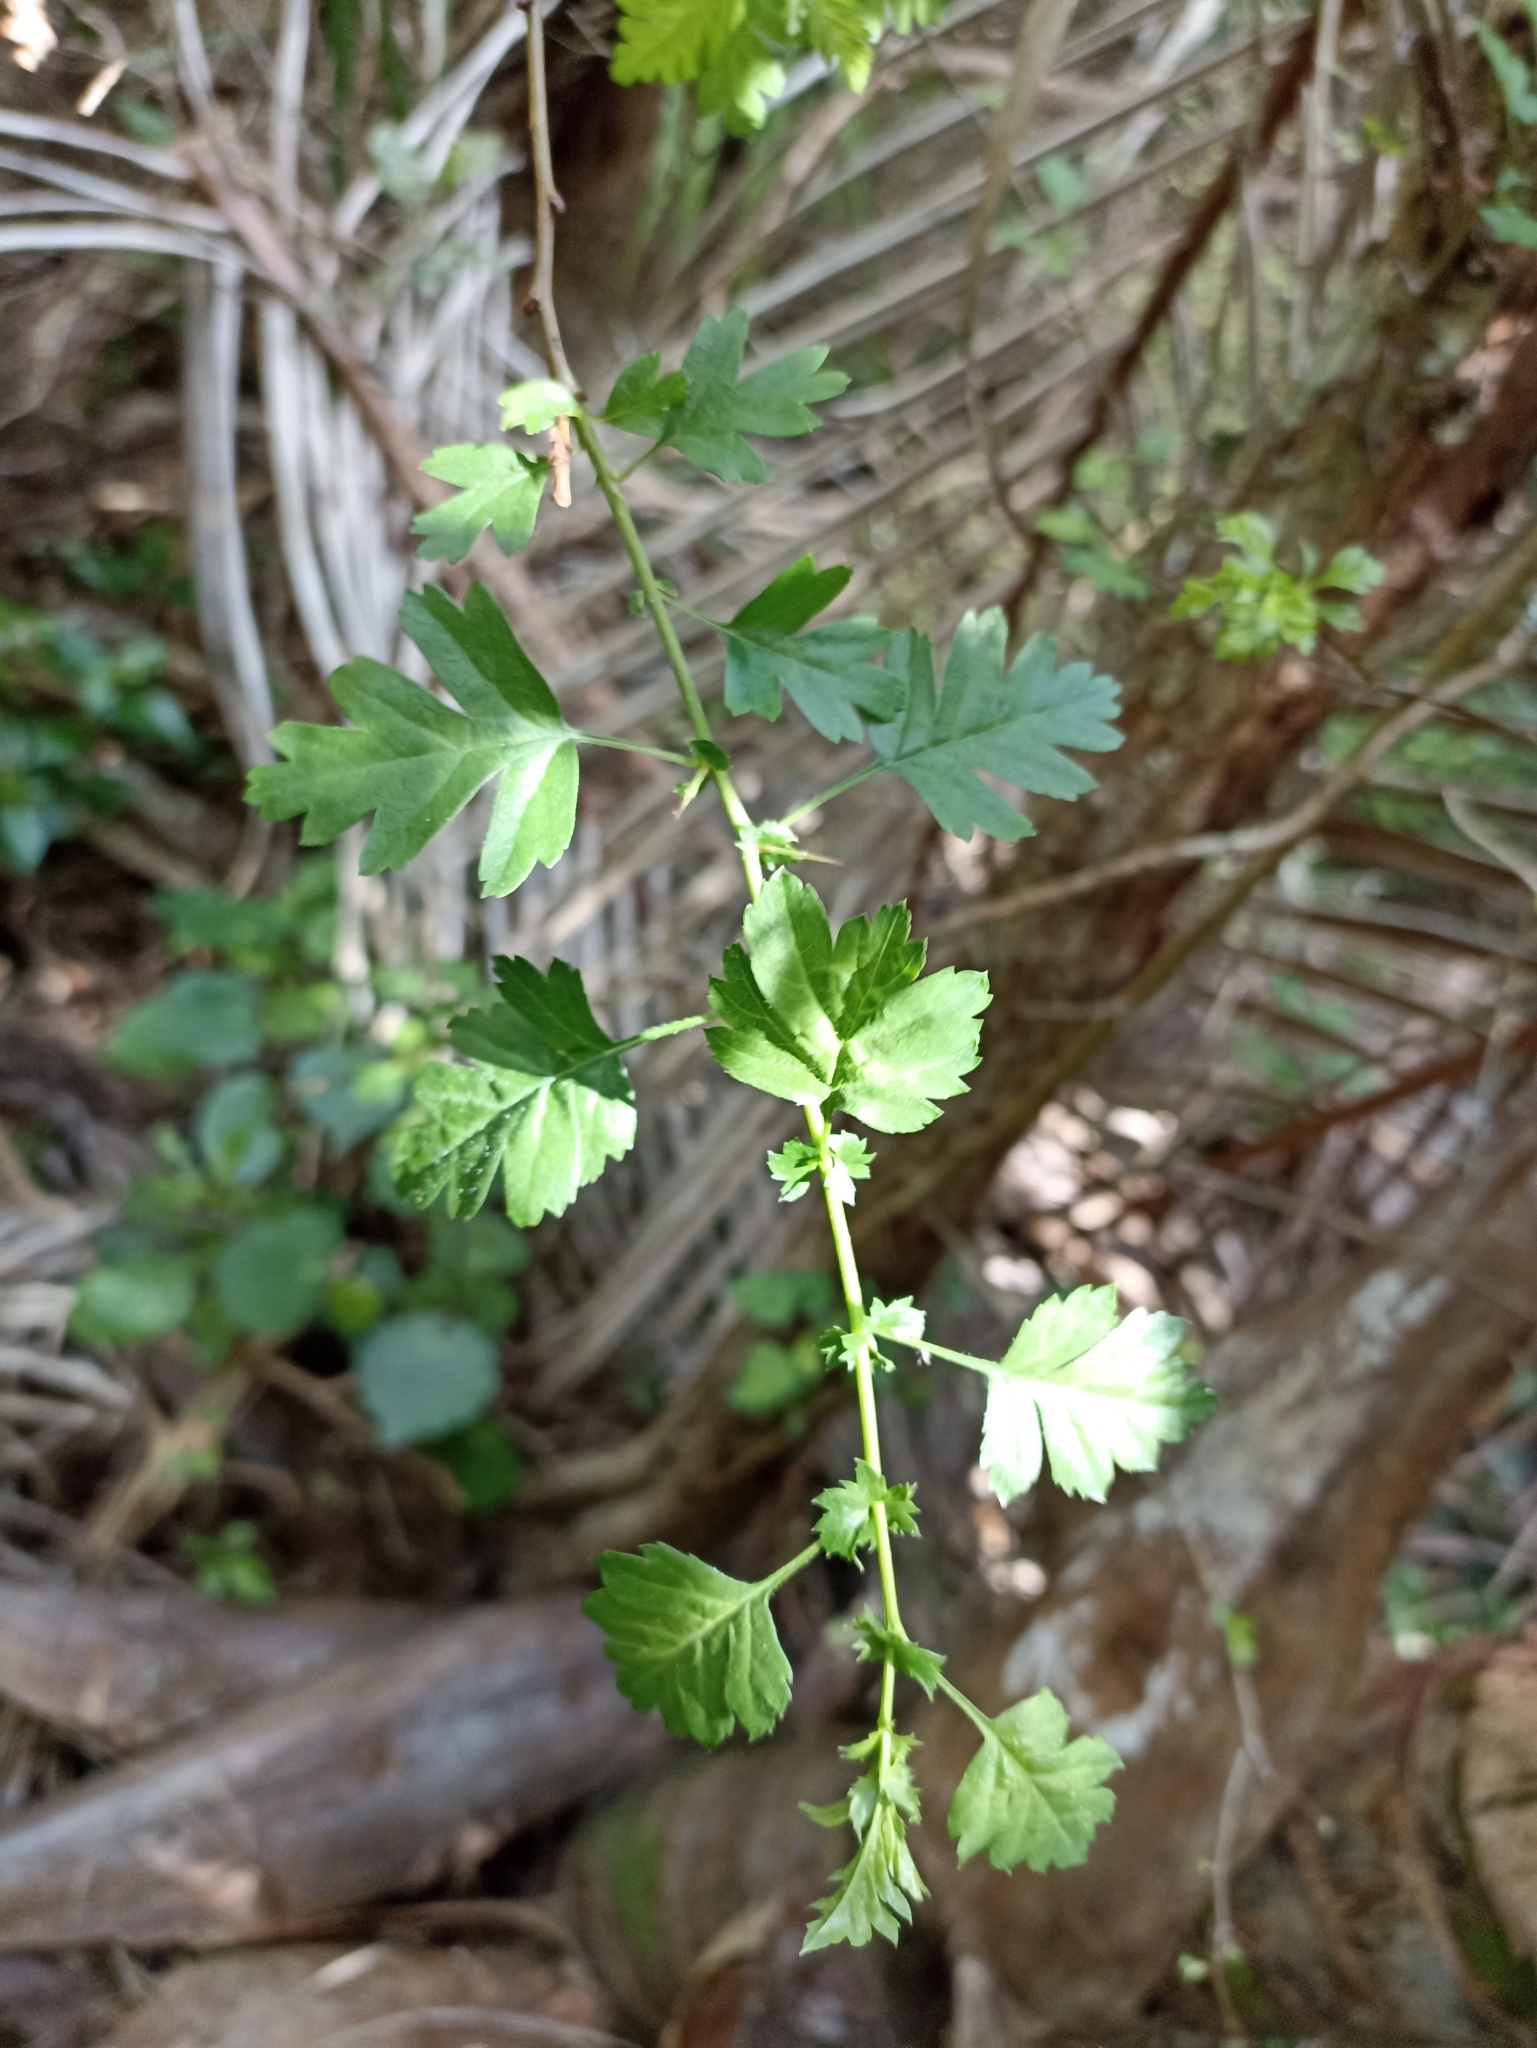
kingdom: Plantae
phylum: Tracheophyta
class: Magnoliopsida
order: Rosales
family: Rosaceae
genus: Crataegus
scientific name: Crataegus monogyna
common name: Hawthorn
